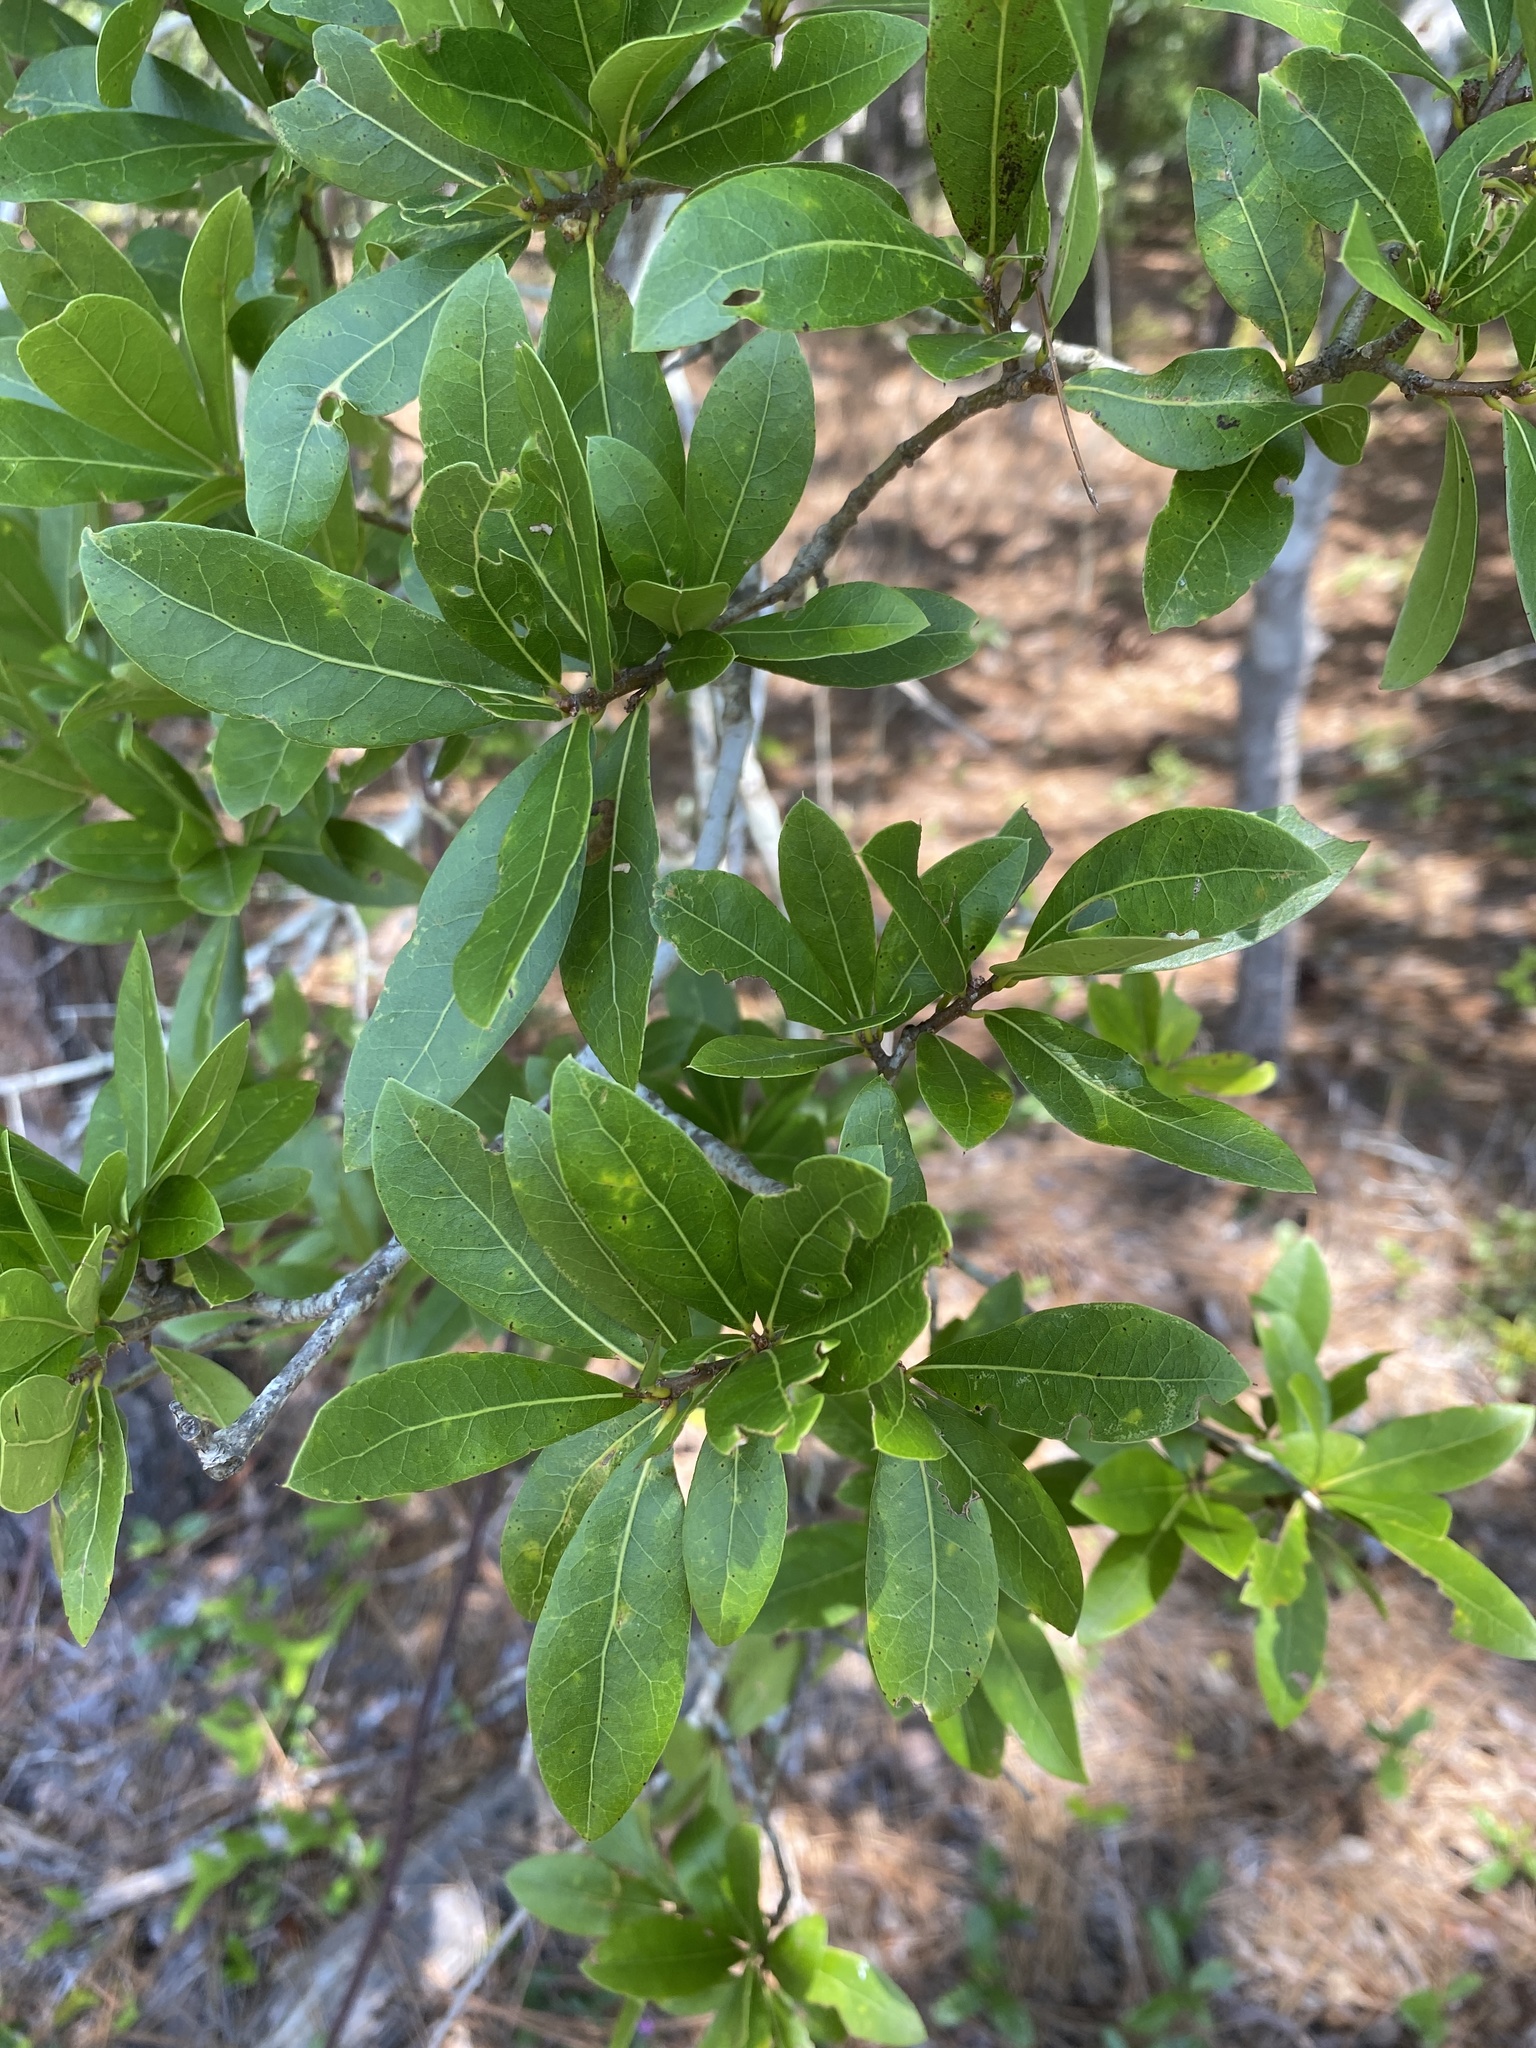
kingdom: Plantae
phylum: Tracheophyta
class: Magnoliopsida
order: Fagales
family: Fagaceae
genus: Quercus
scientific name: Quercus hemisphaerica
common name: Darlington oak
